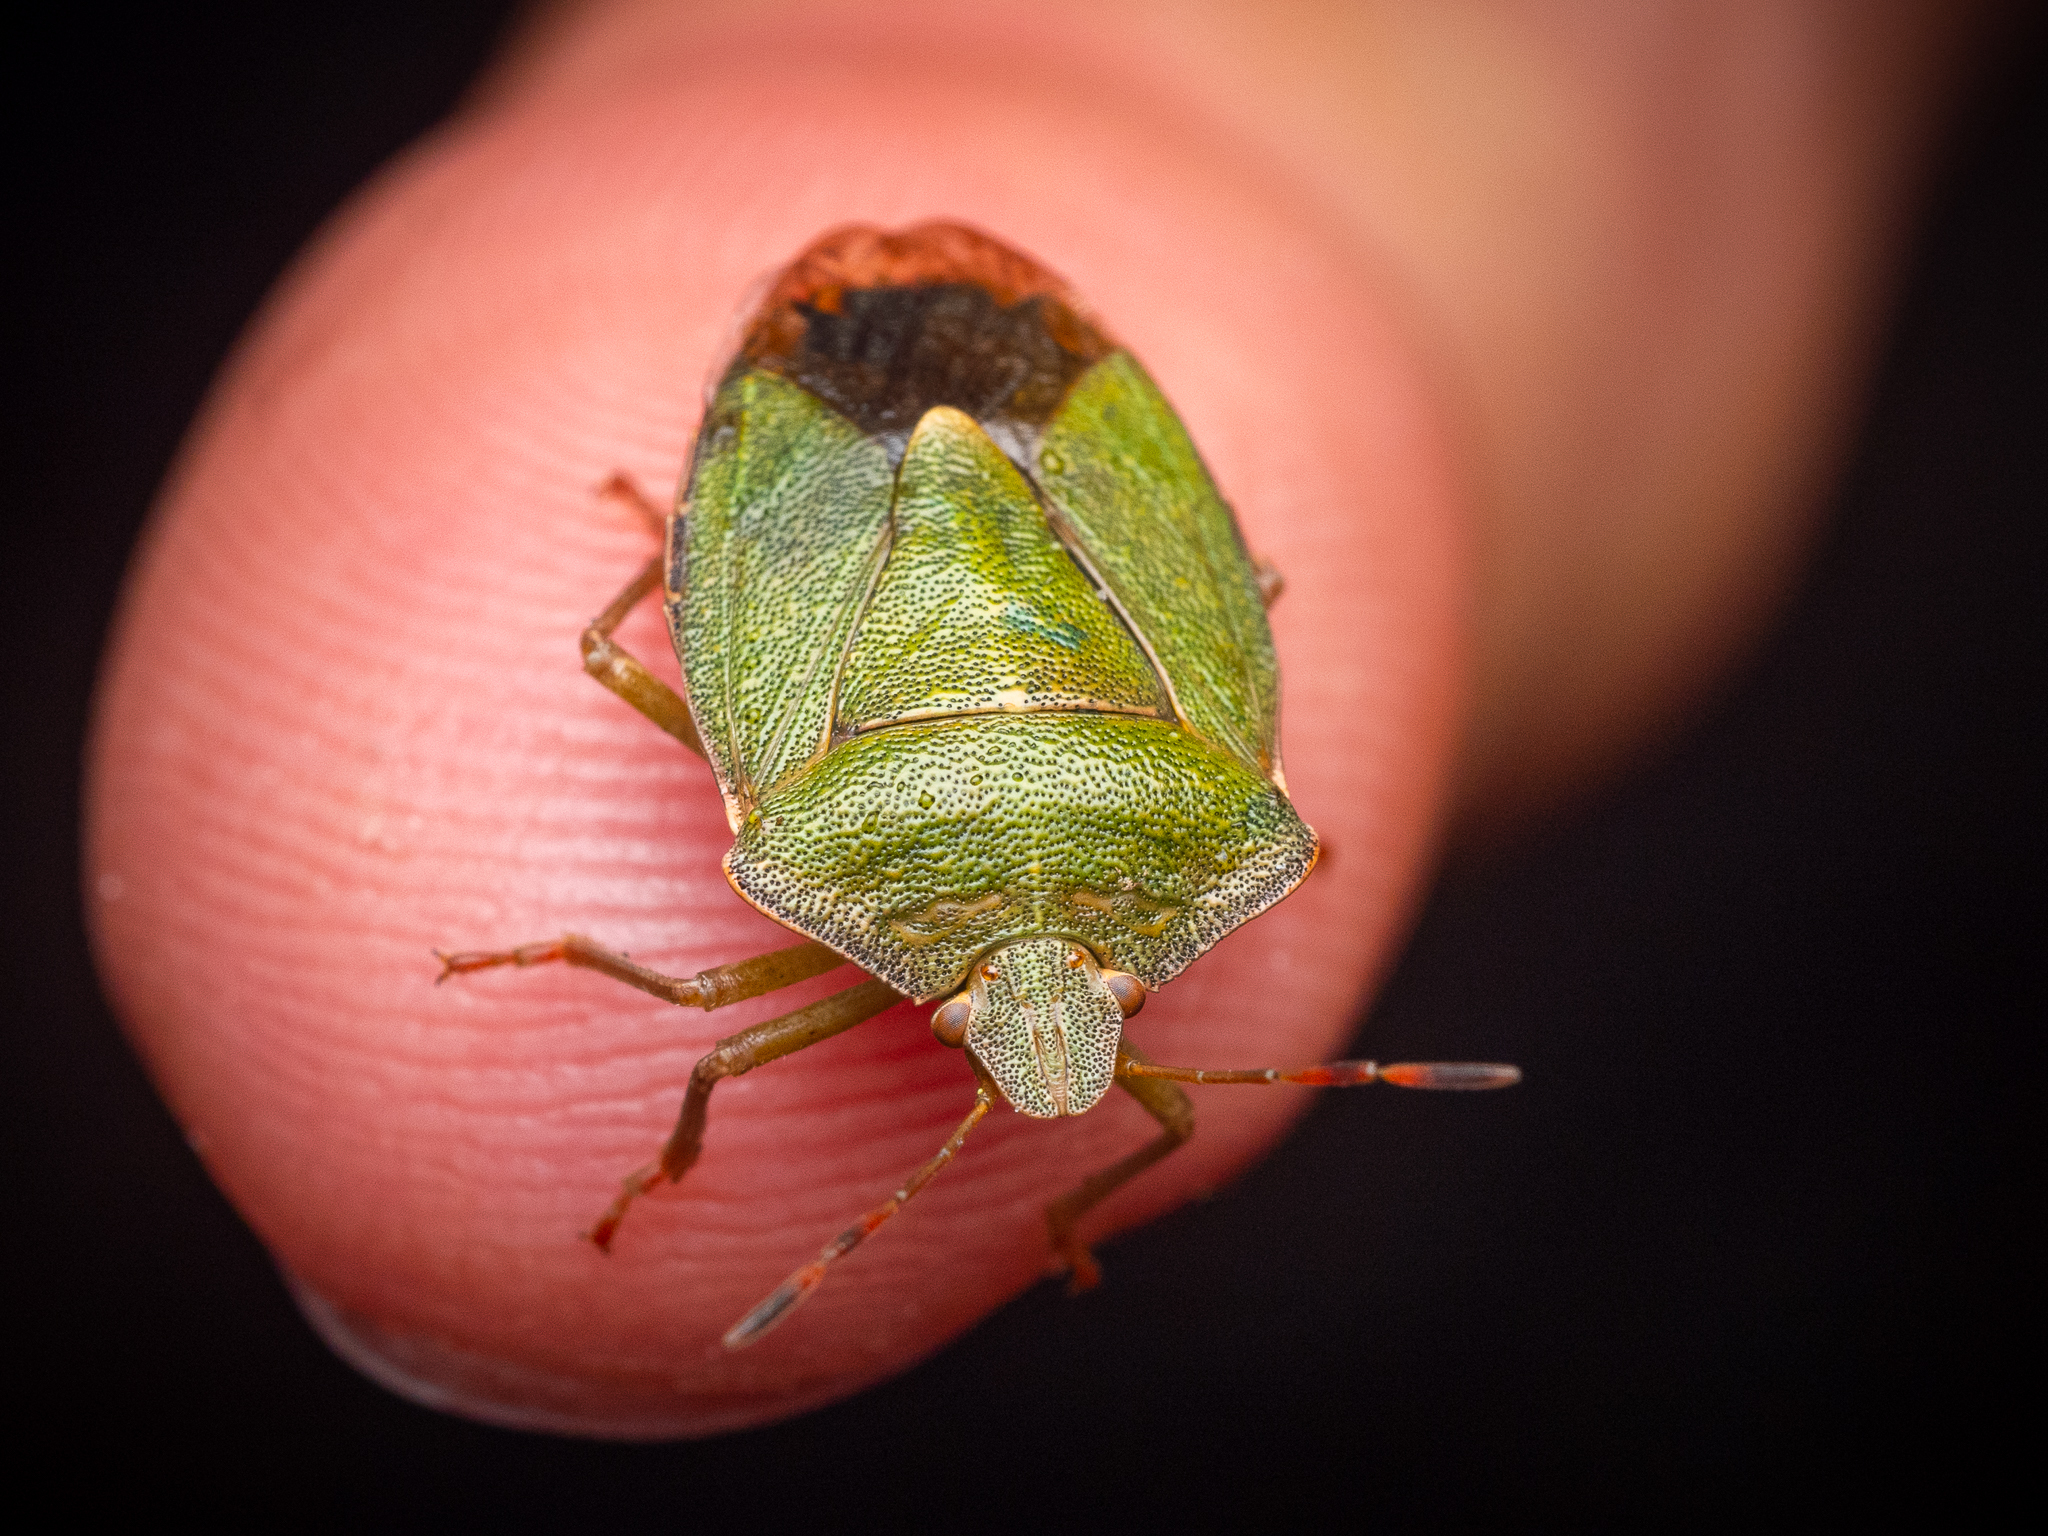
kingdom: Animalia
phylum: Arthropoda
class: Insecta
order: Hemiptera
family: Pentatomidae
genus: Palomena
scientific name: Palomena prasina
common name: Green shieldbug
